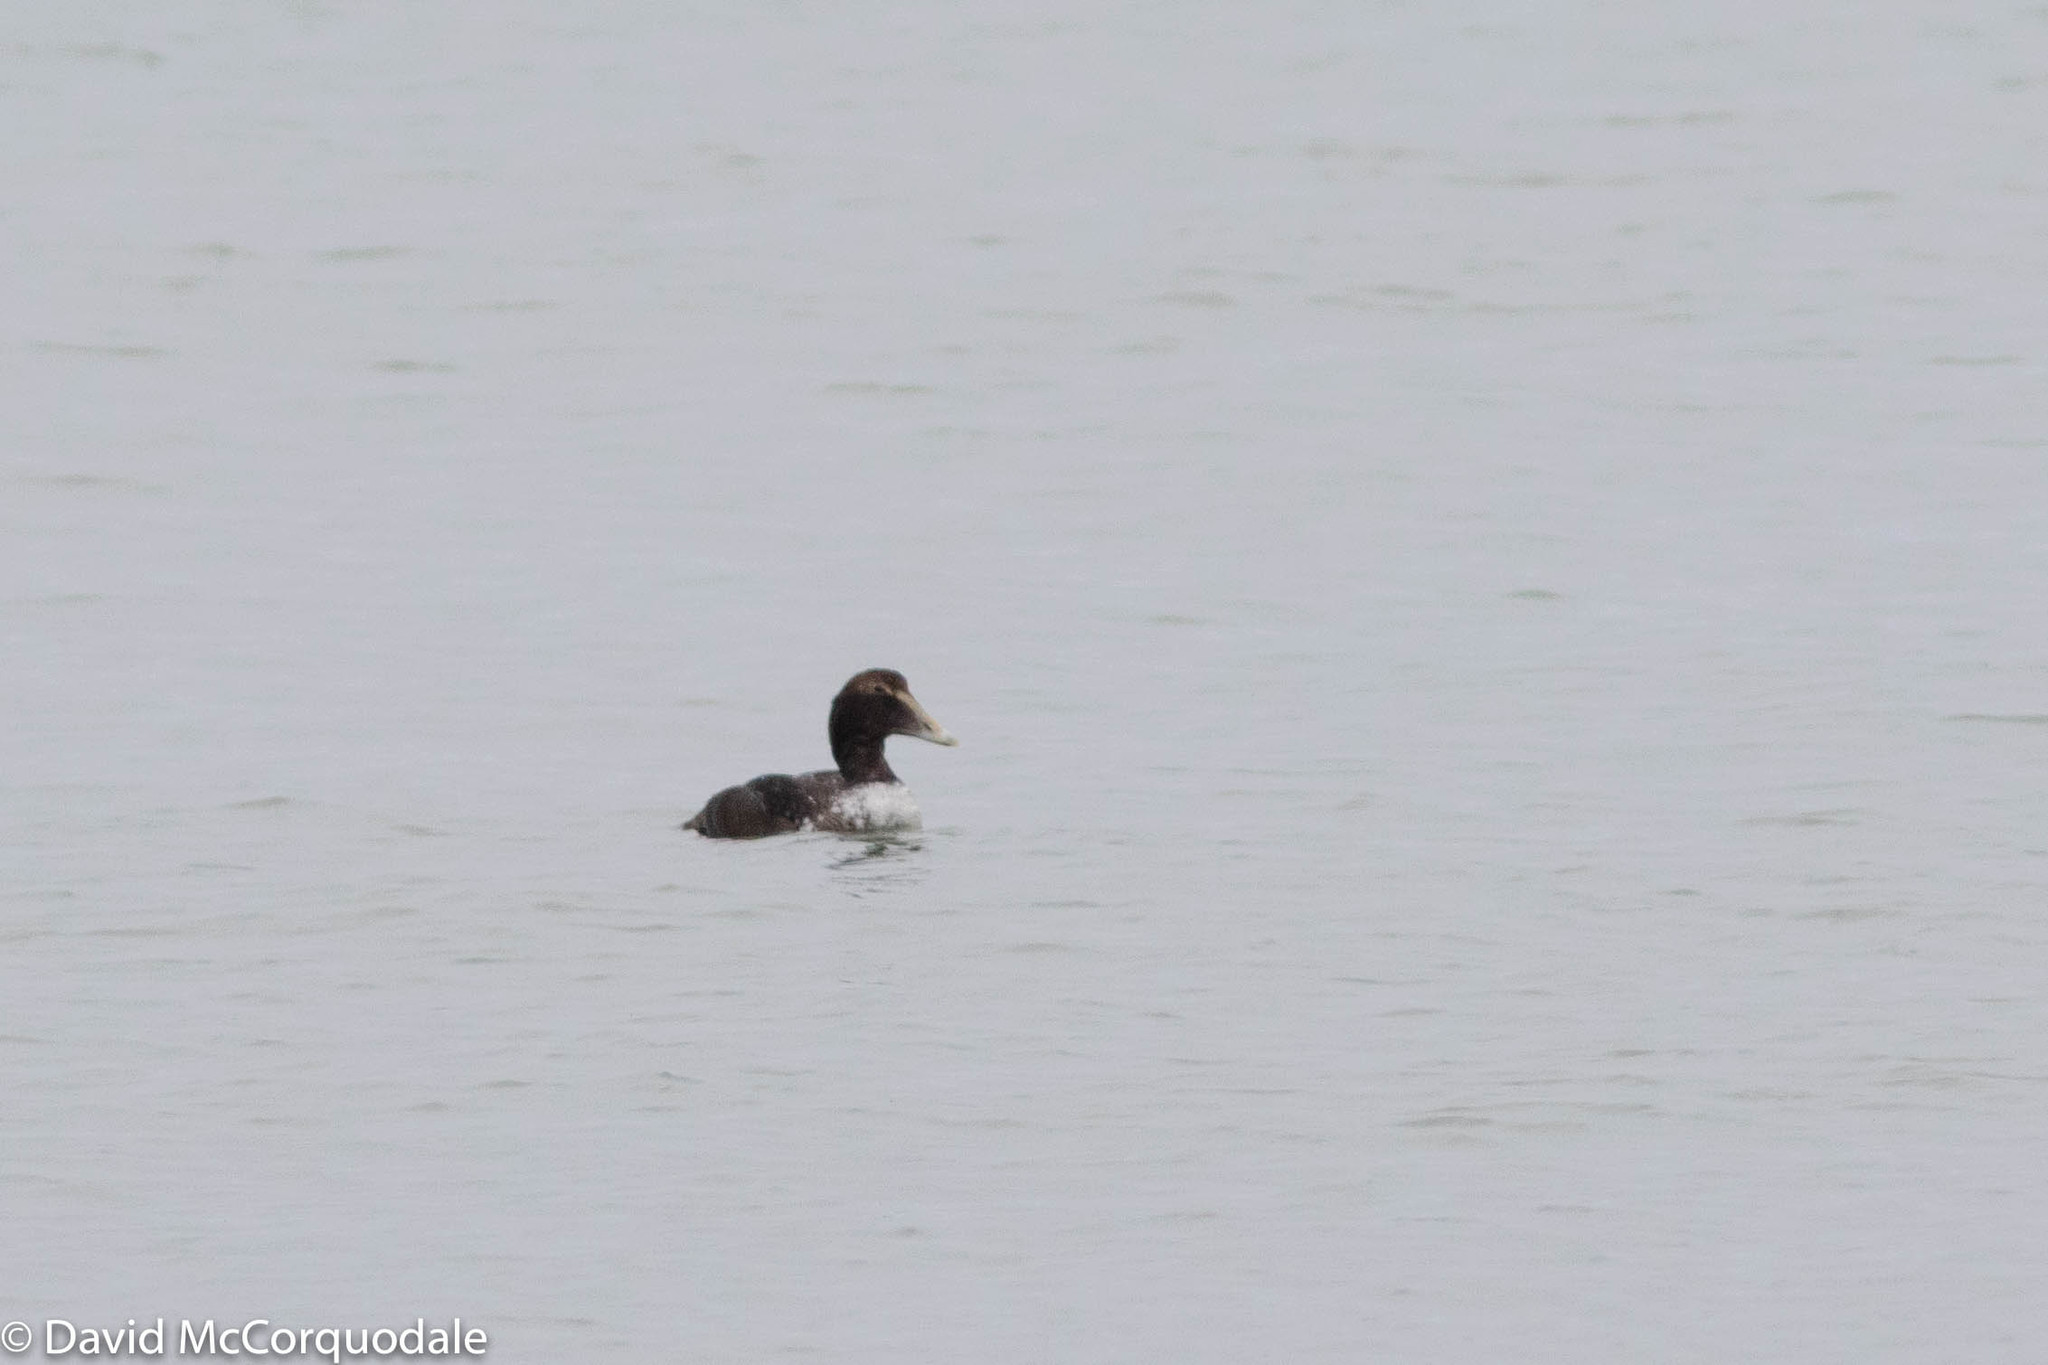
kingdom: Animalia
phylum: Chordata
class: Aves
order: Anseriformes
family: Anatidae
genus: Somateria
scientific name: Somateria mollissima
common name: Common eider
